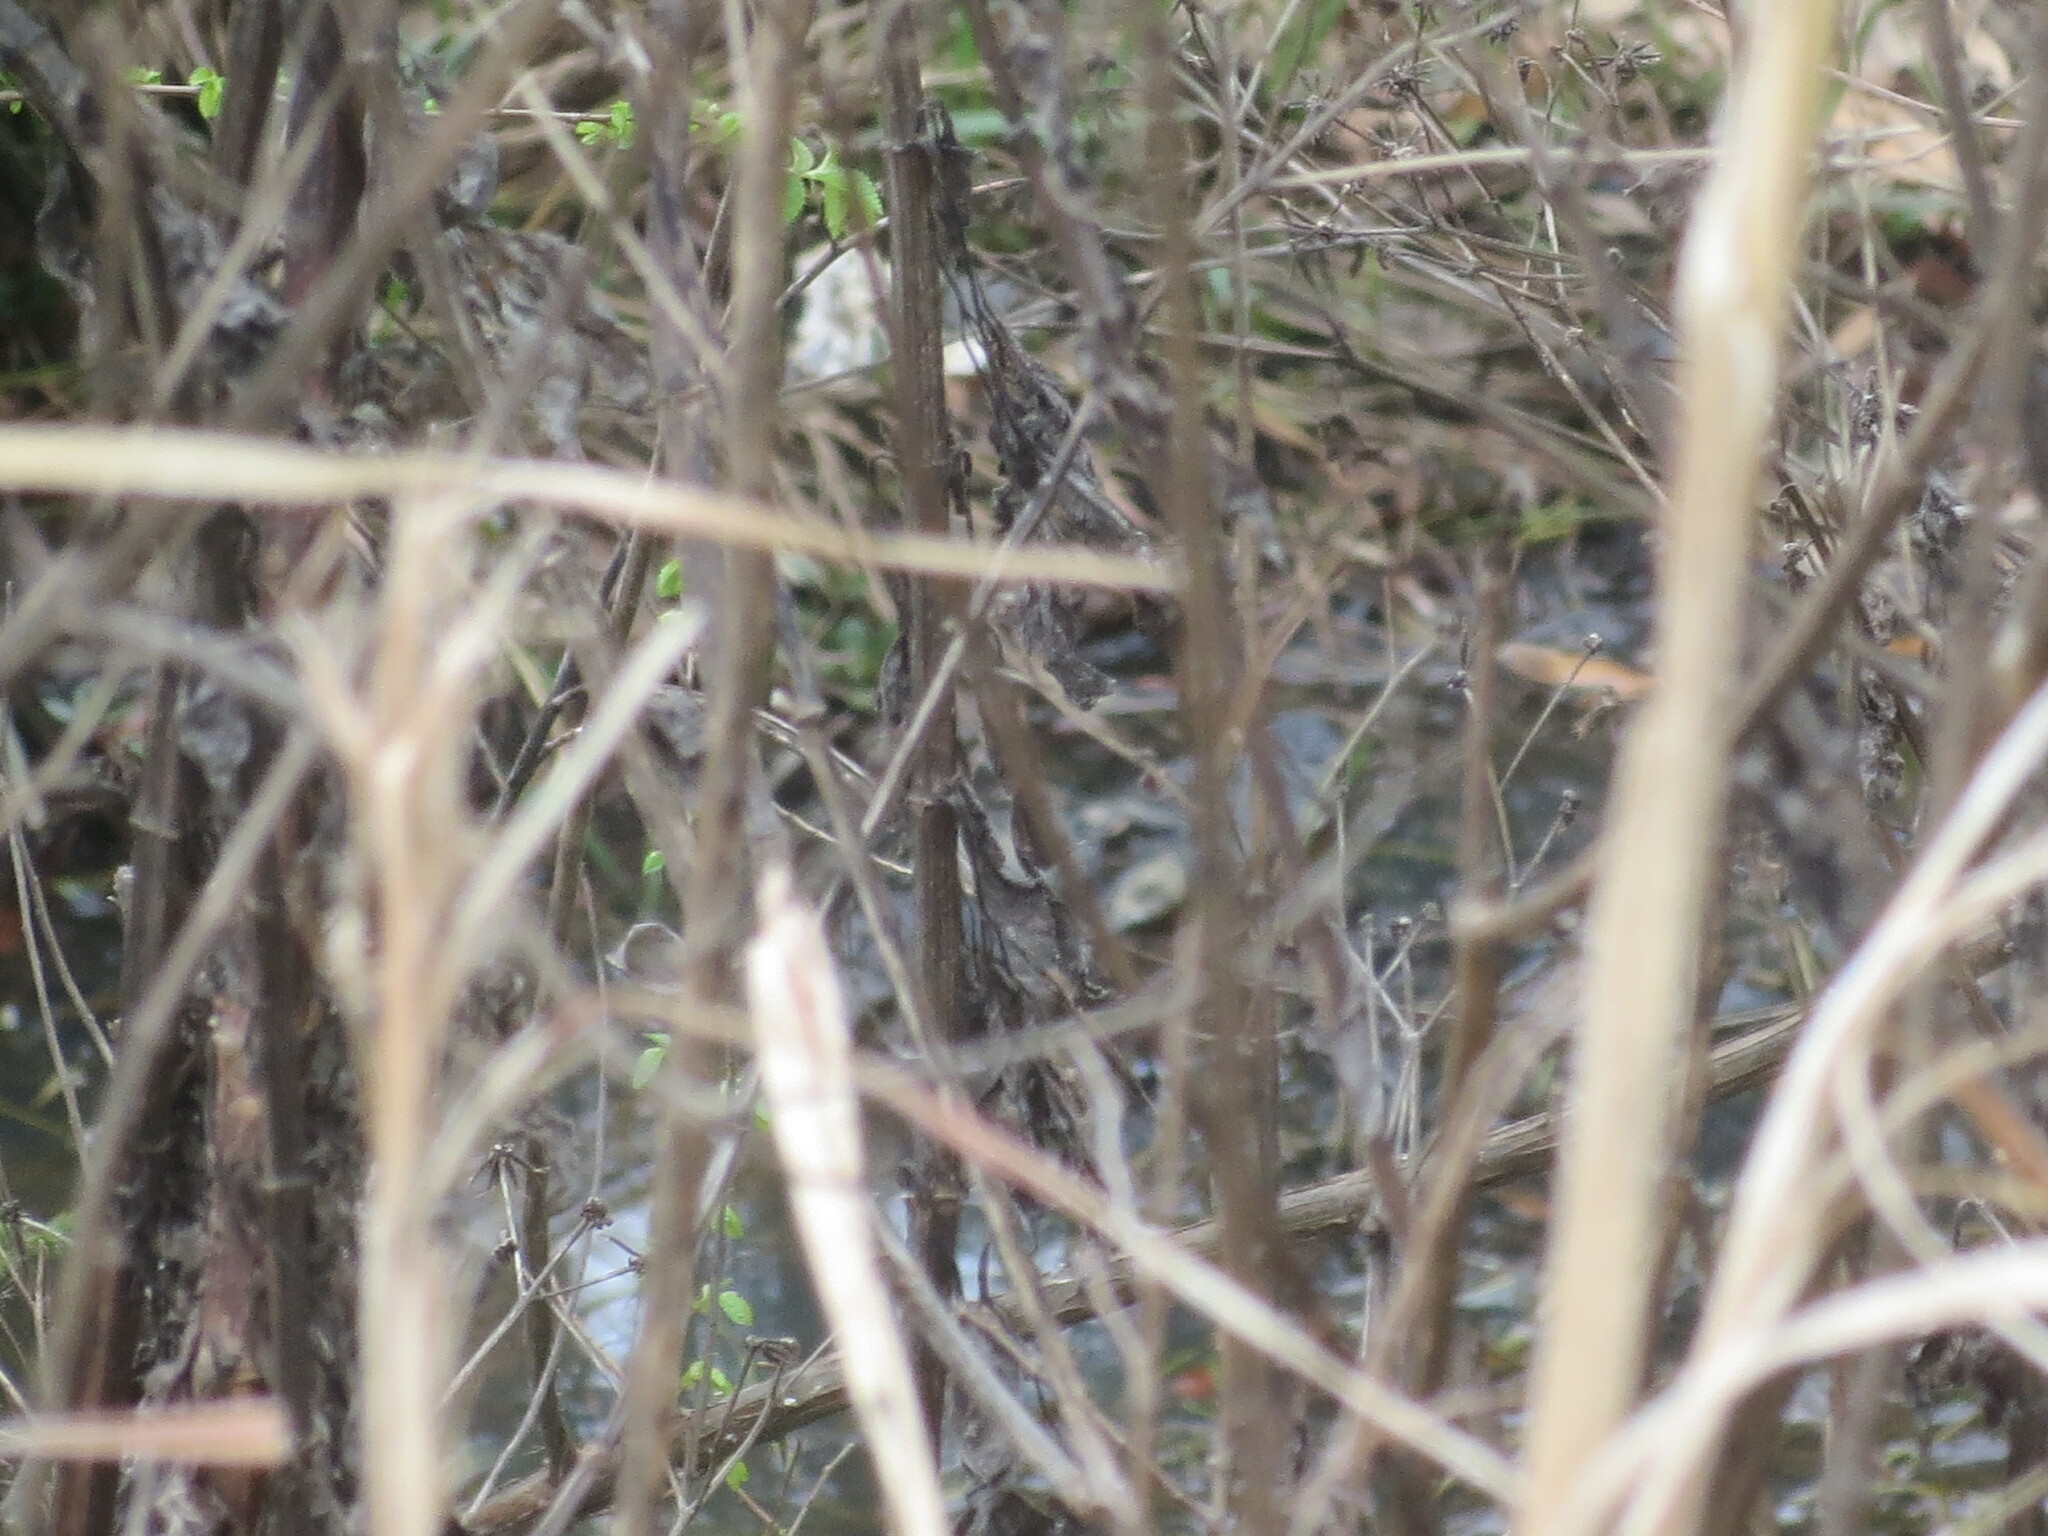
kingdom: Animalia
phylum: Chordata
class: Crocodylia
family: Alligatoridae
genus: Alligator
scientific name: Alligator mississippiensis
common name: American alligator
